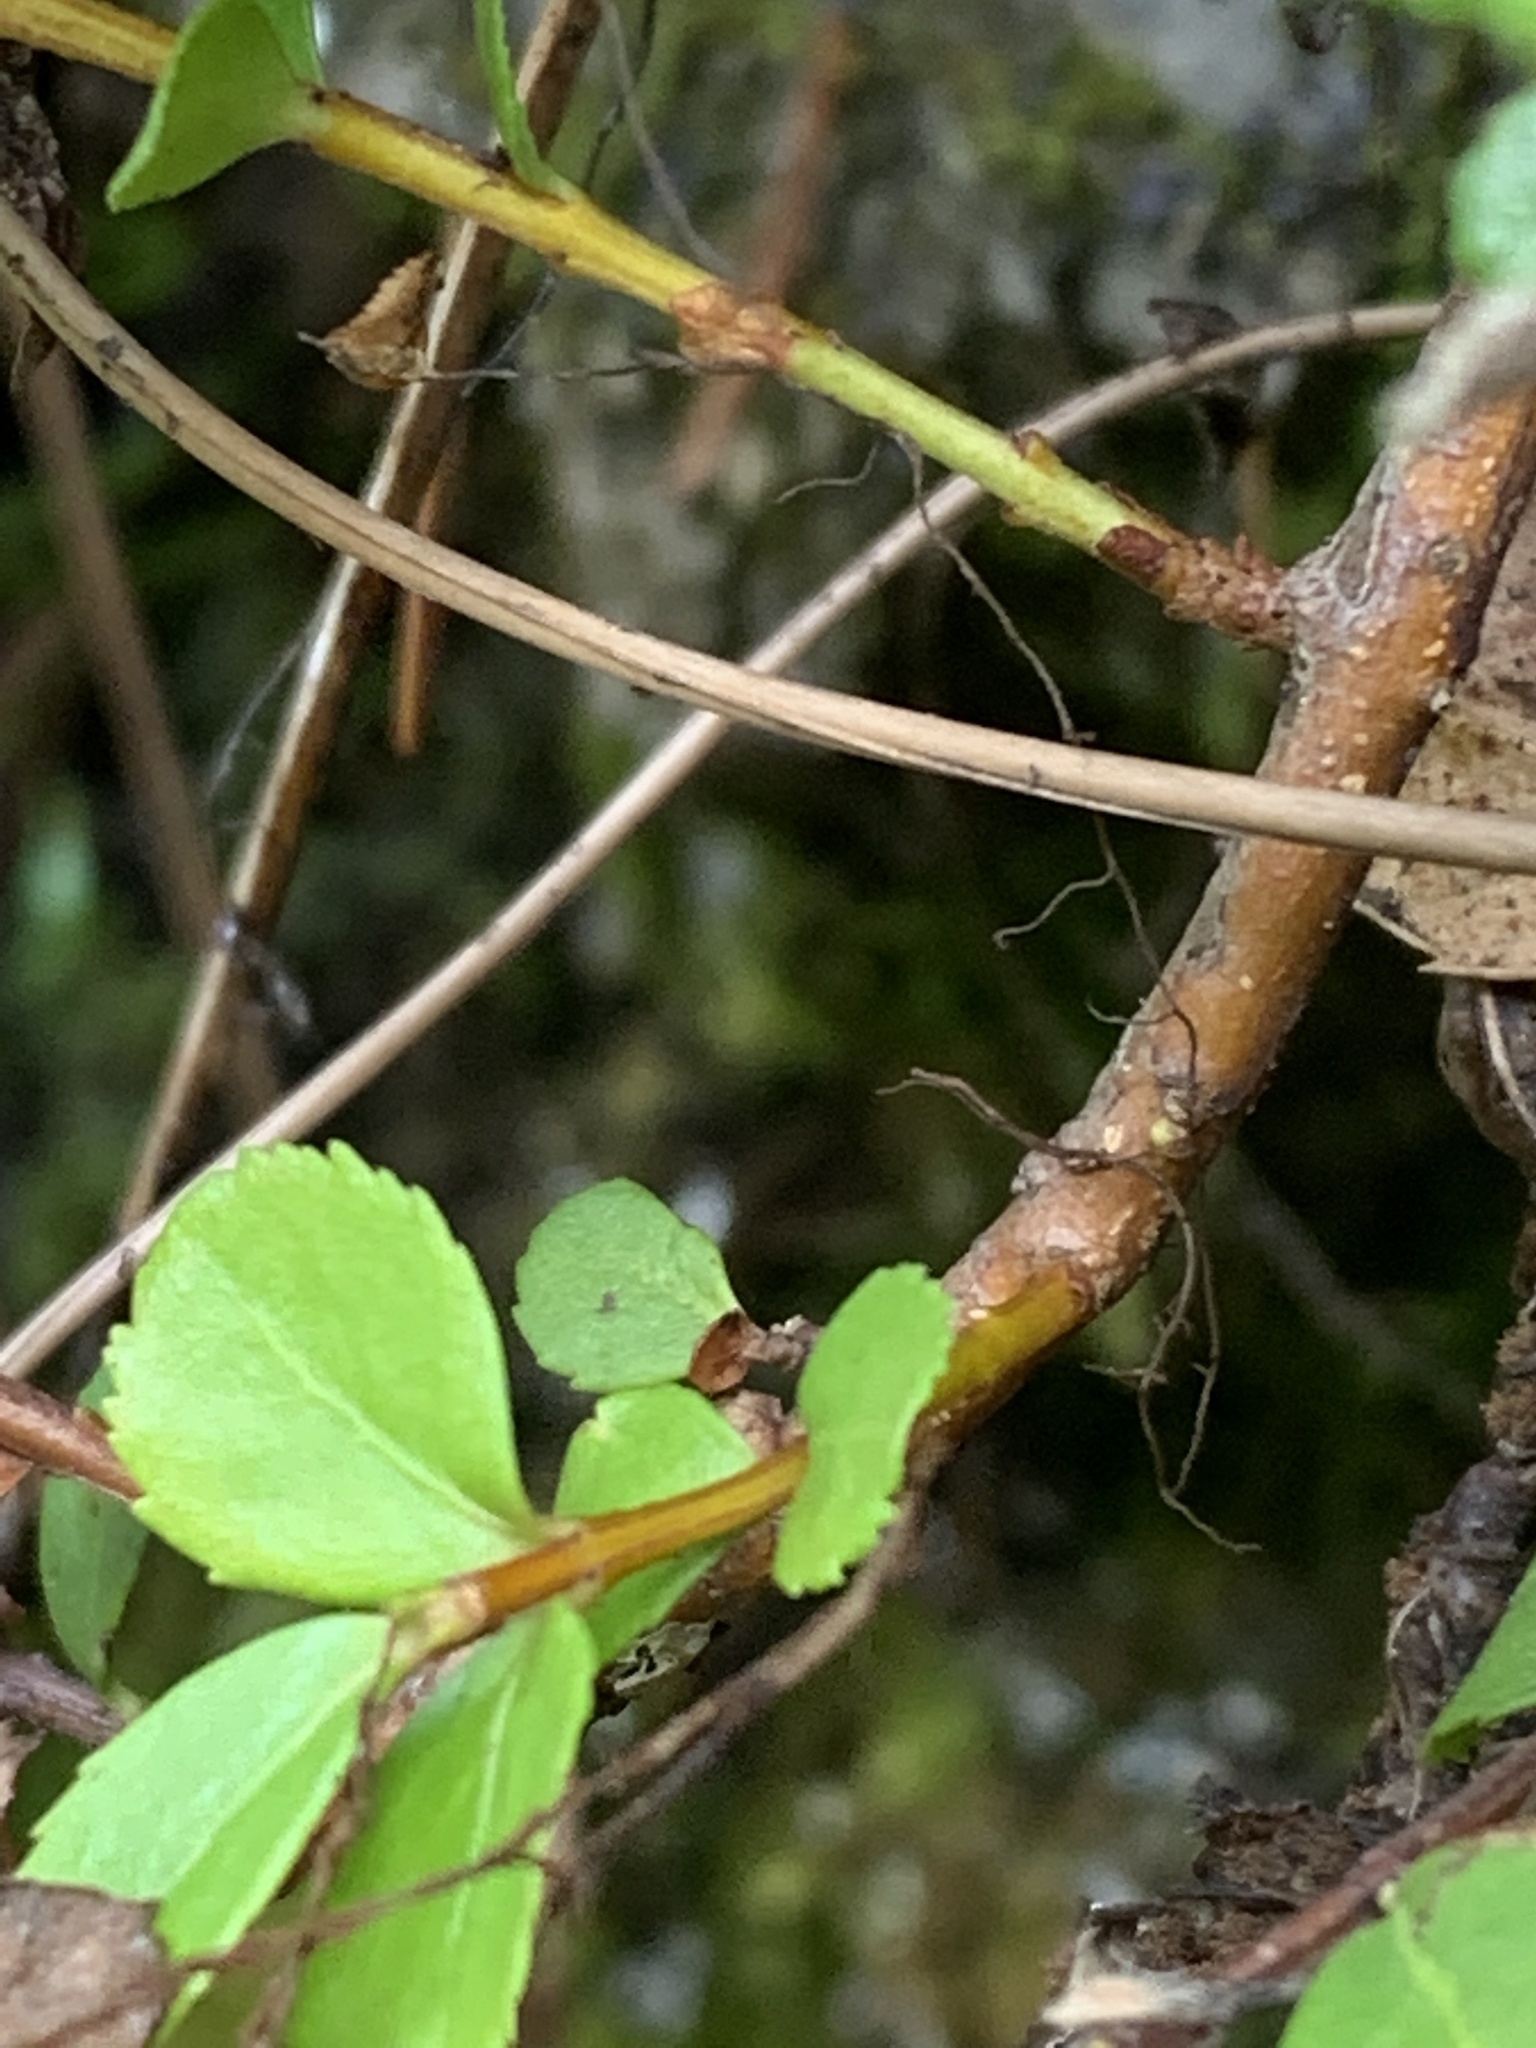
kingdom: Plantae
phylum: Tracheophyta
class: Magnoliopsida
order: Celastrales
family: Celastraceae
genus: Paxistima
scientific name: Paxistima myrsinites
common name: Mountain-lover
